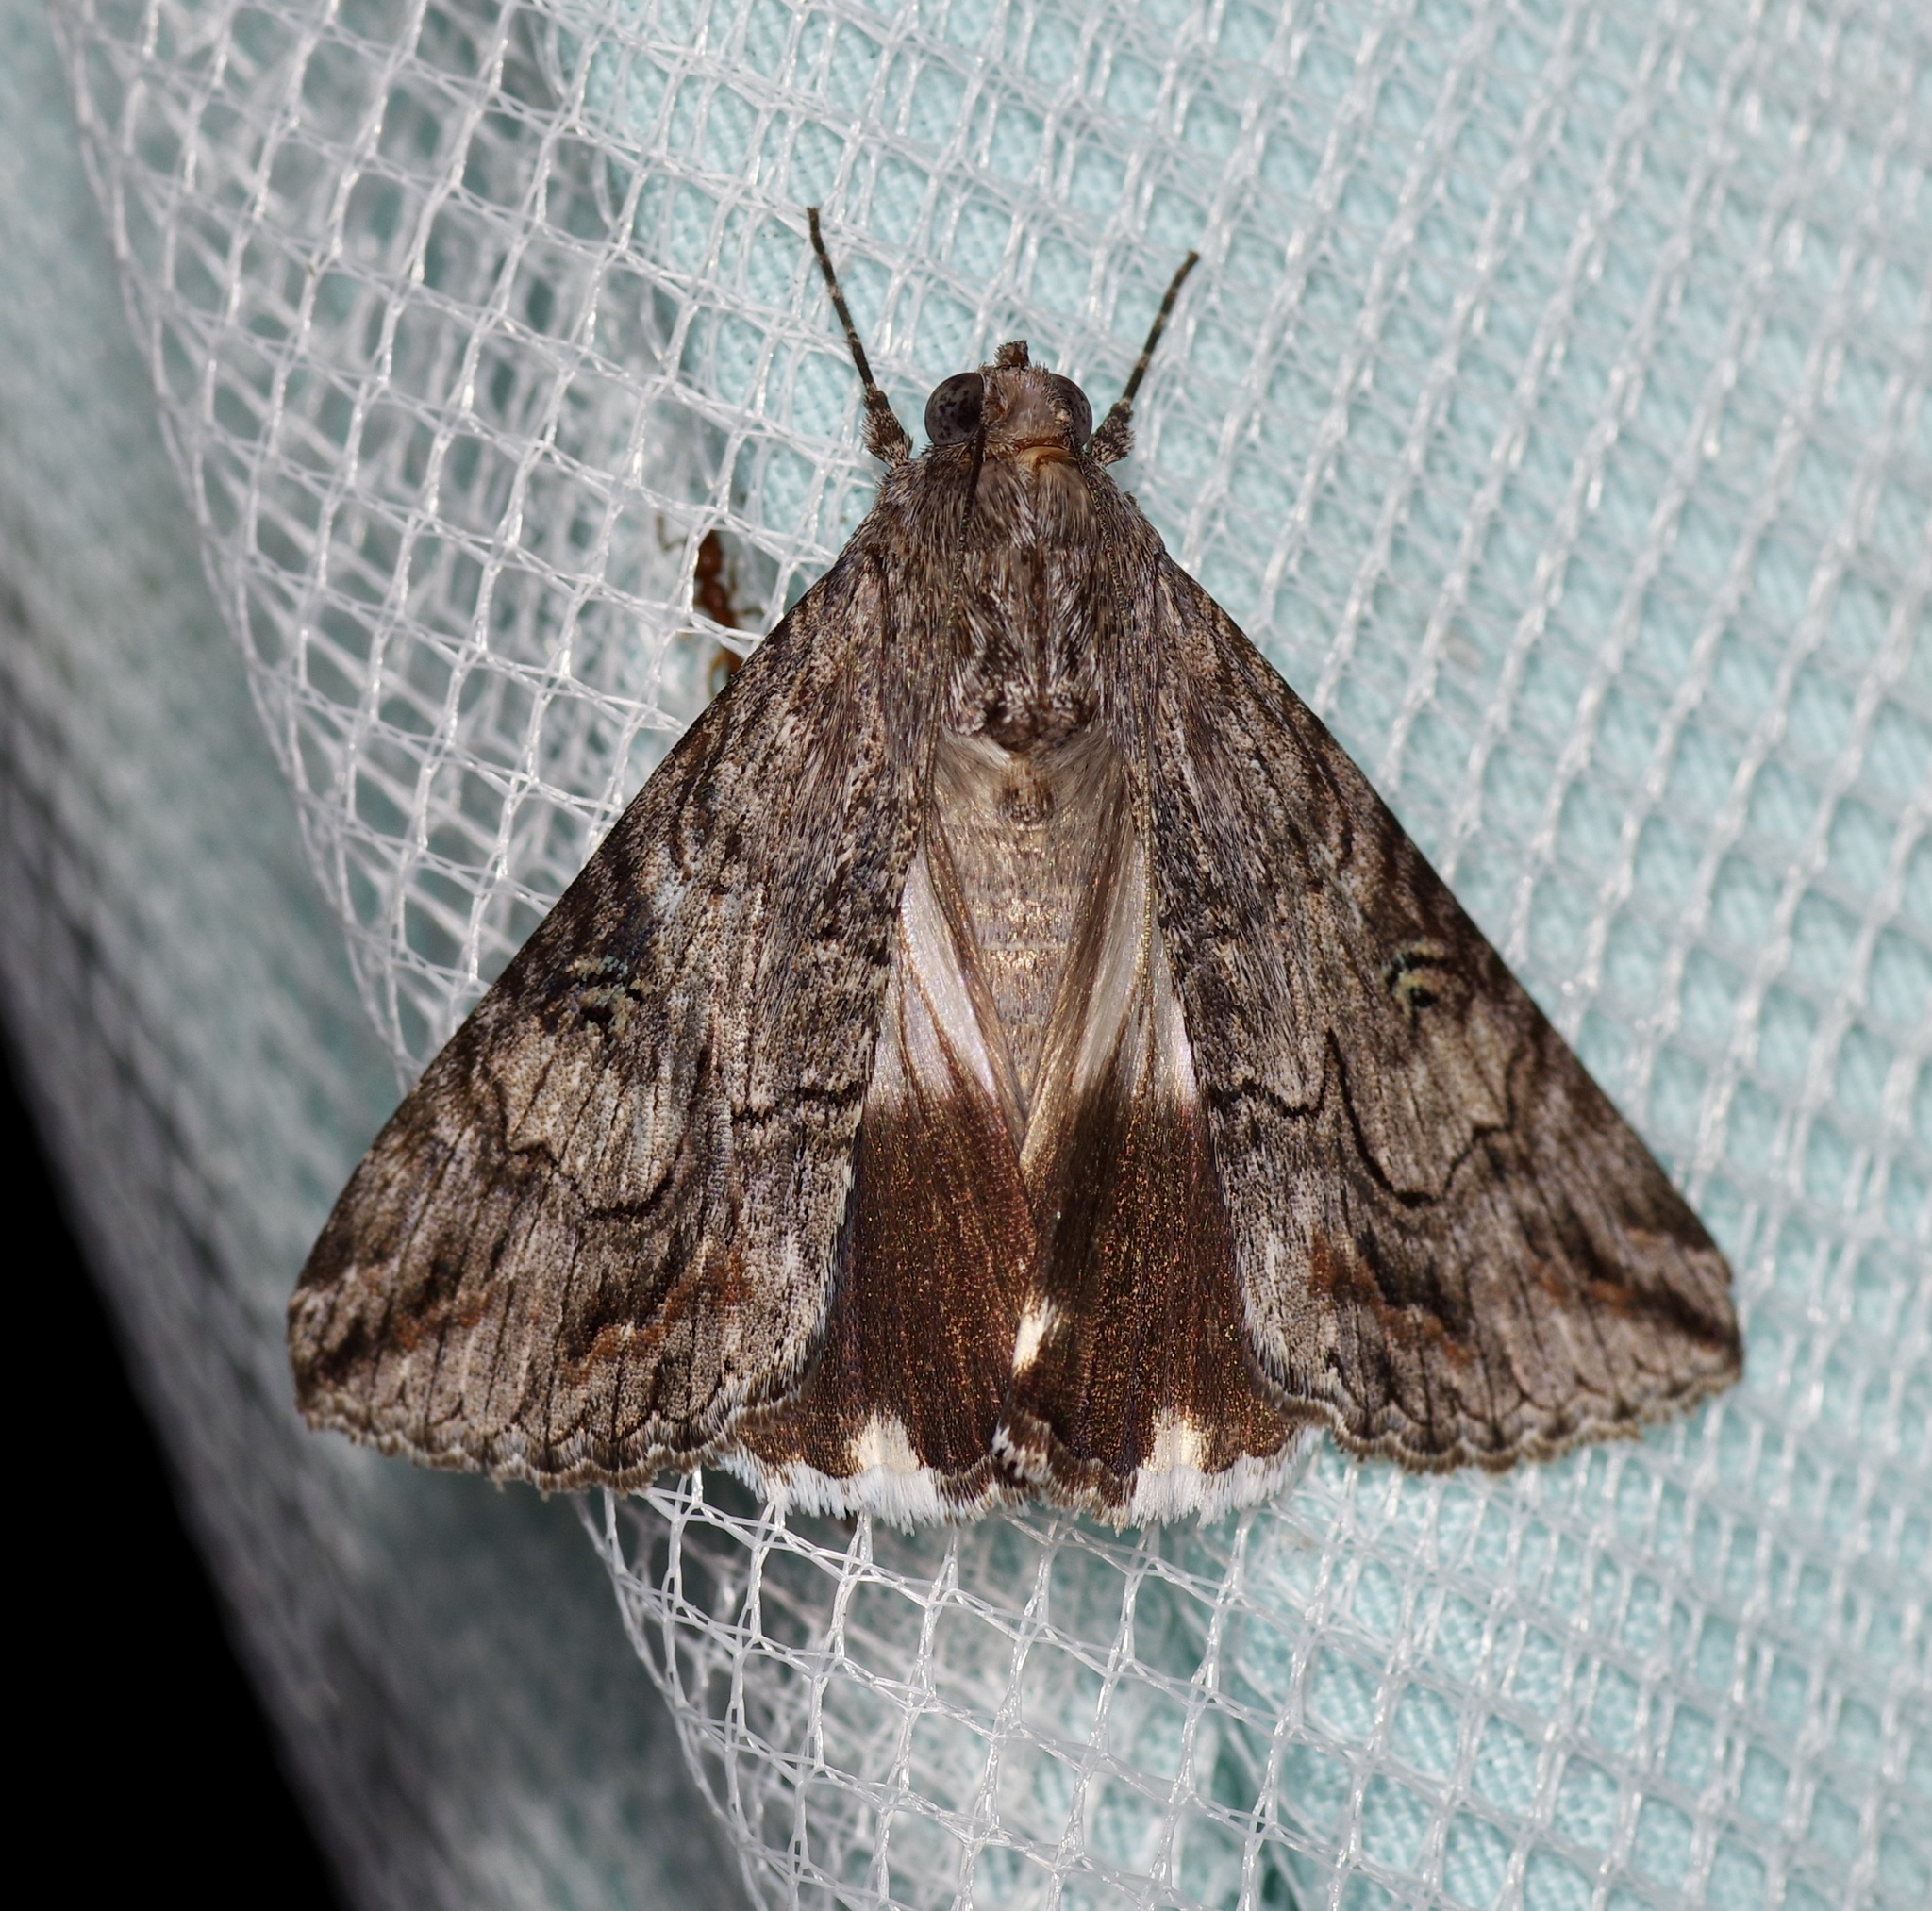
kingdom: Animalia
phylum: Arthropoda
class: Insecta
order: Lepidoptera
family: Erebidae
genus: Melipotis
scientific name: Melipotis jucunda
